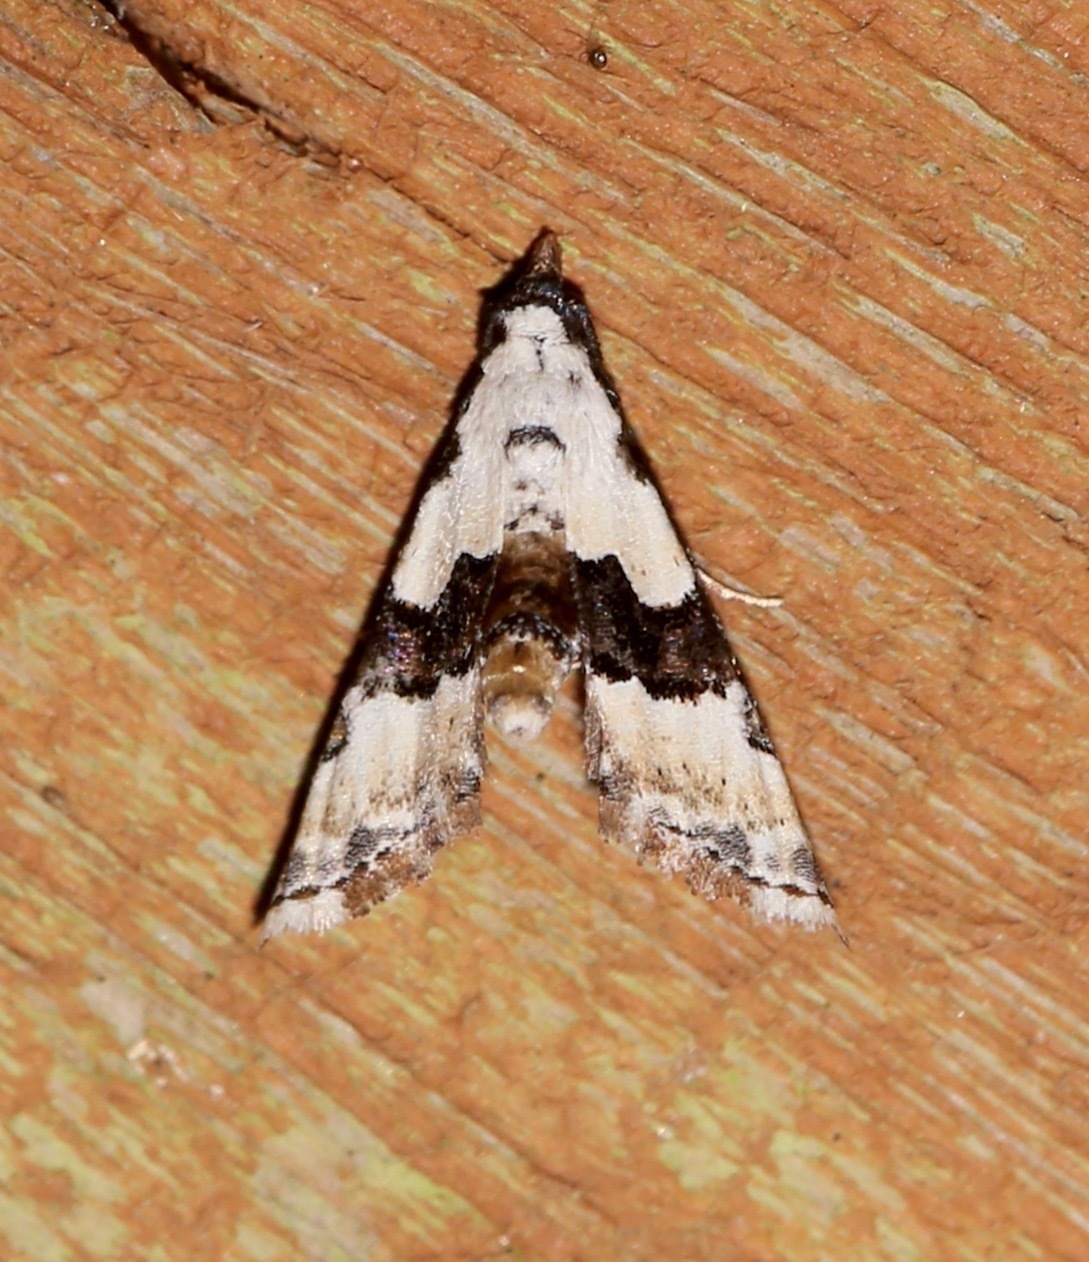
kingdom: Animalia
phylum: Arthropoda
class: Insecta
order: Lepidoptera
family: Noctuidae
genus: Nigetia
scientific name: Nigetia formosalis
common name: Thin-winged owlet
